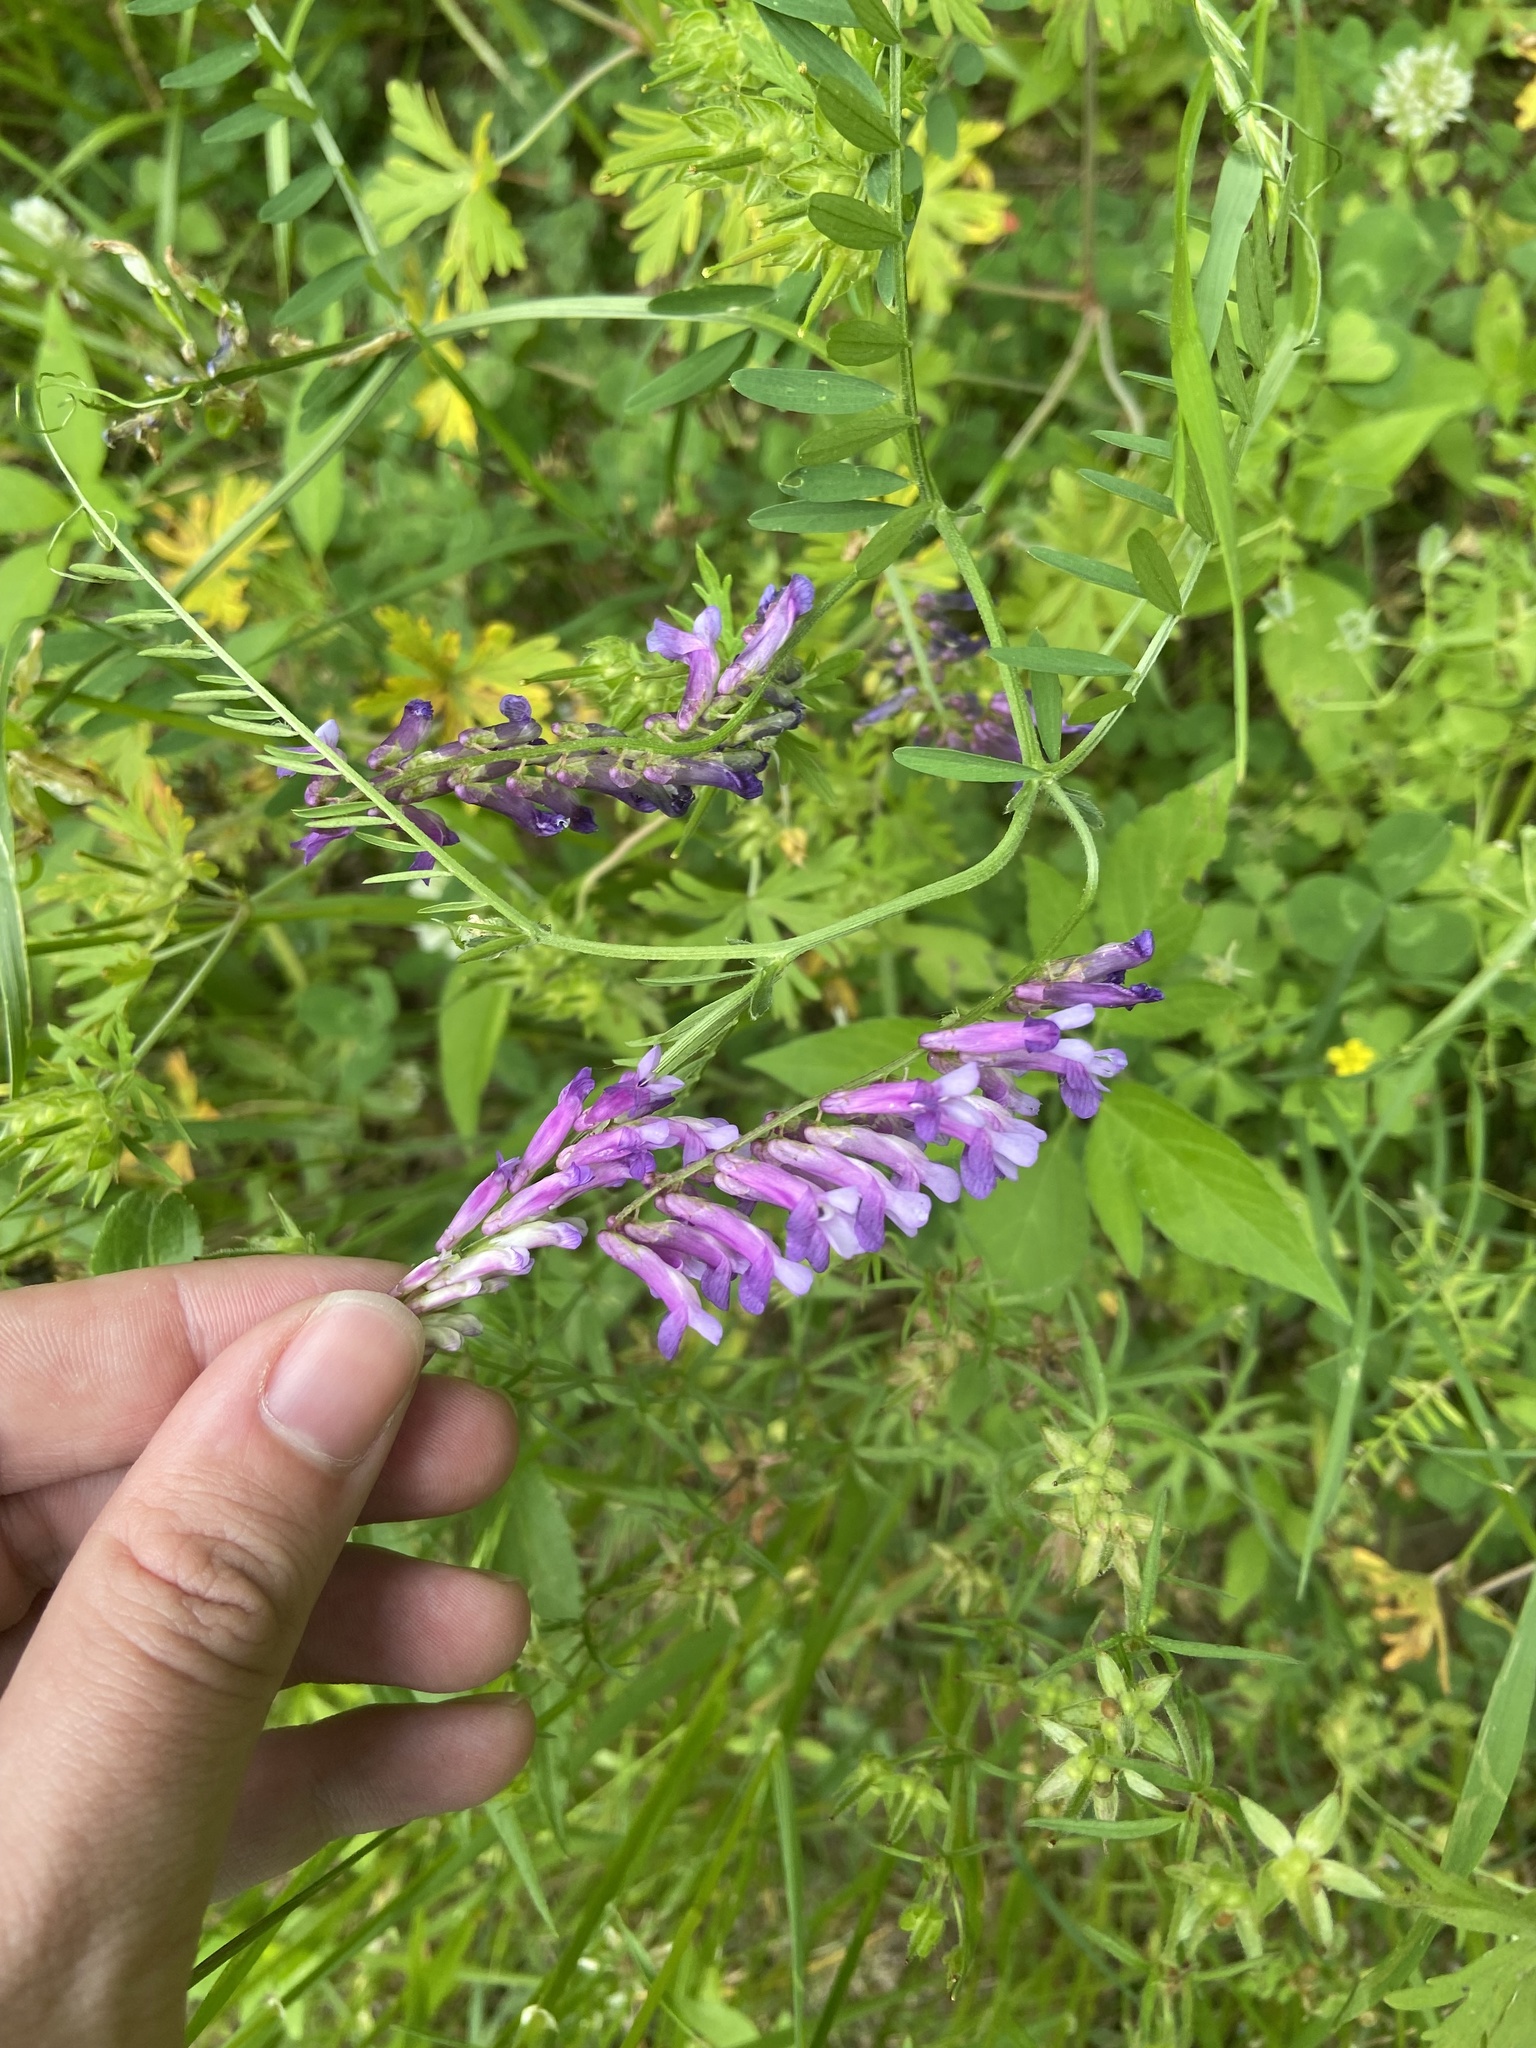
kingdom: Plantae
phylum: Tracheophyta
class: Magnoliopsida
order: Fabales
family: Fabaceae
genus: Vicia
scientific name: Vicia villosa
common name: Fodder vetch
